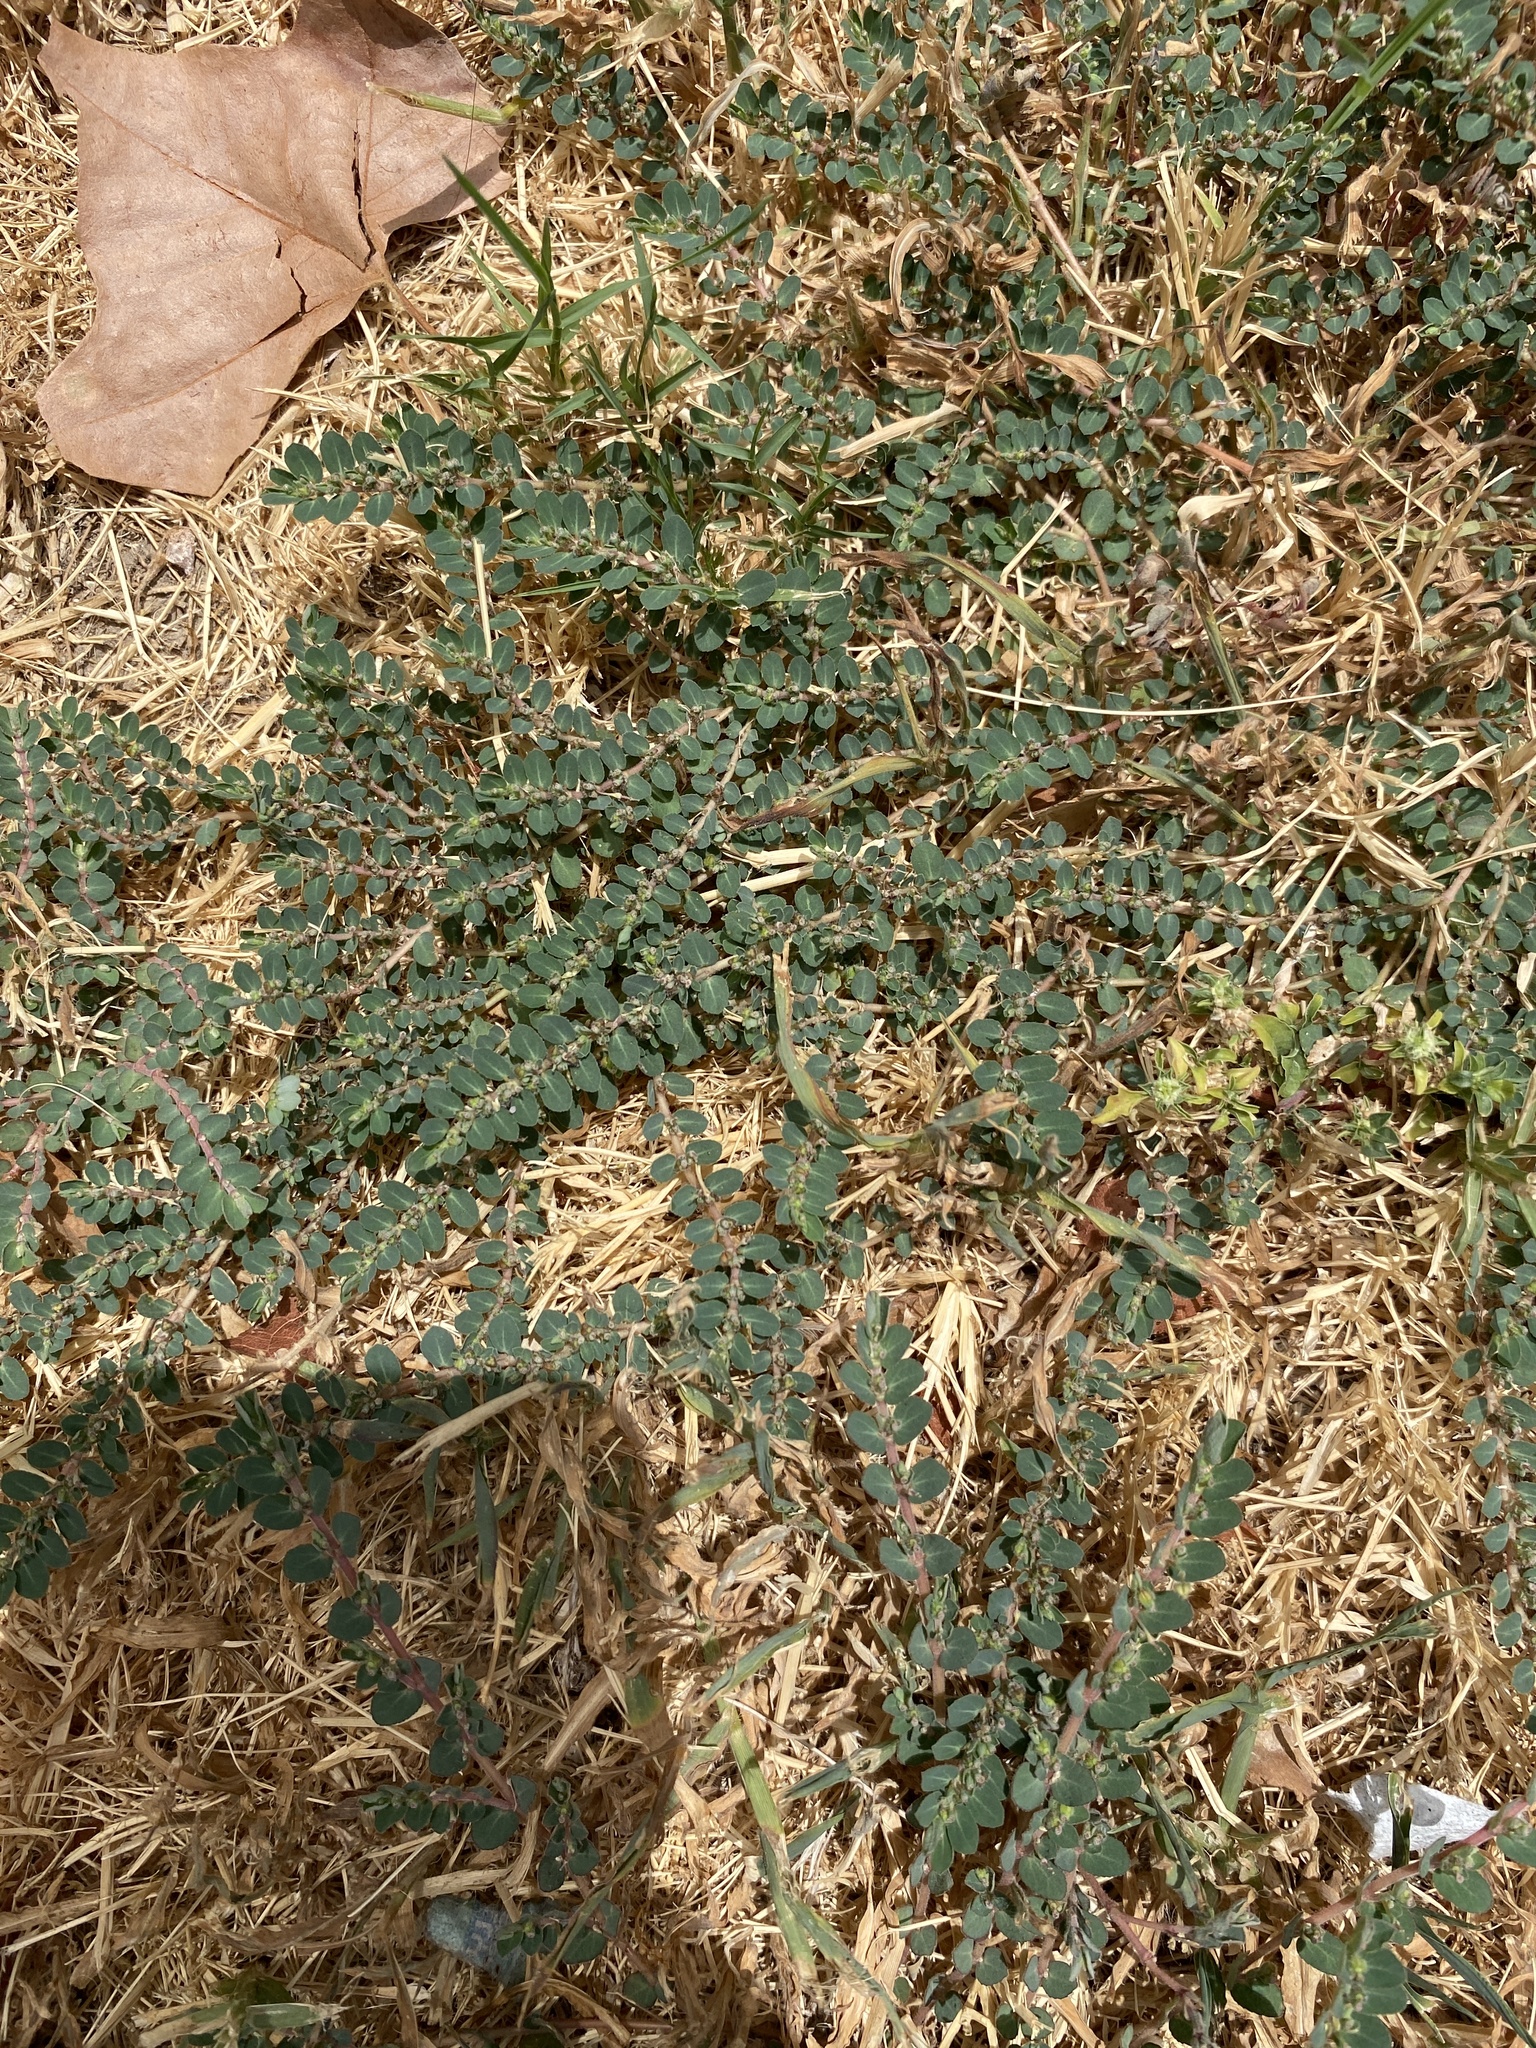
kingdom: Plantae
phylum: Tracheophyta
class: Magnoliopsida
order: Malpighiales
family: Euphorbiaceae
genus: Euphorbia
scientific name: Euphorbia prostrata
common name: Prostrate sandmat
